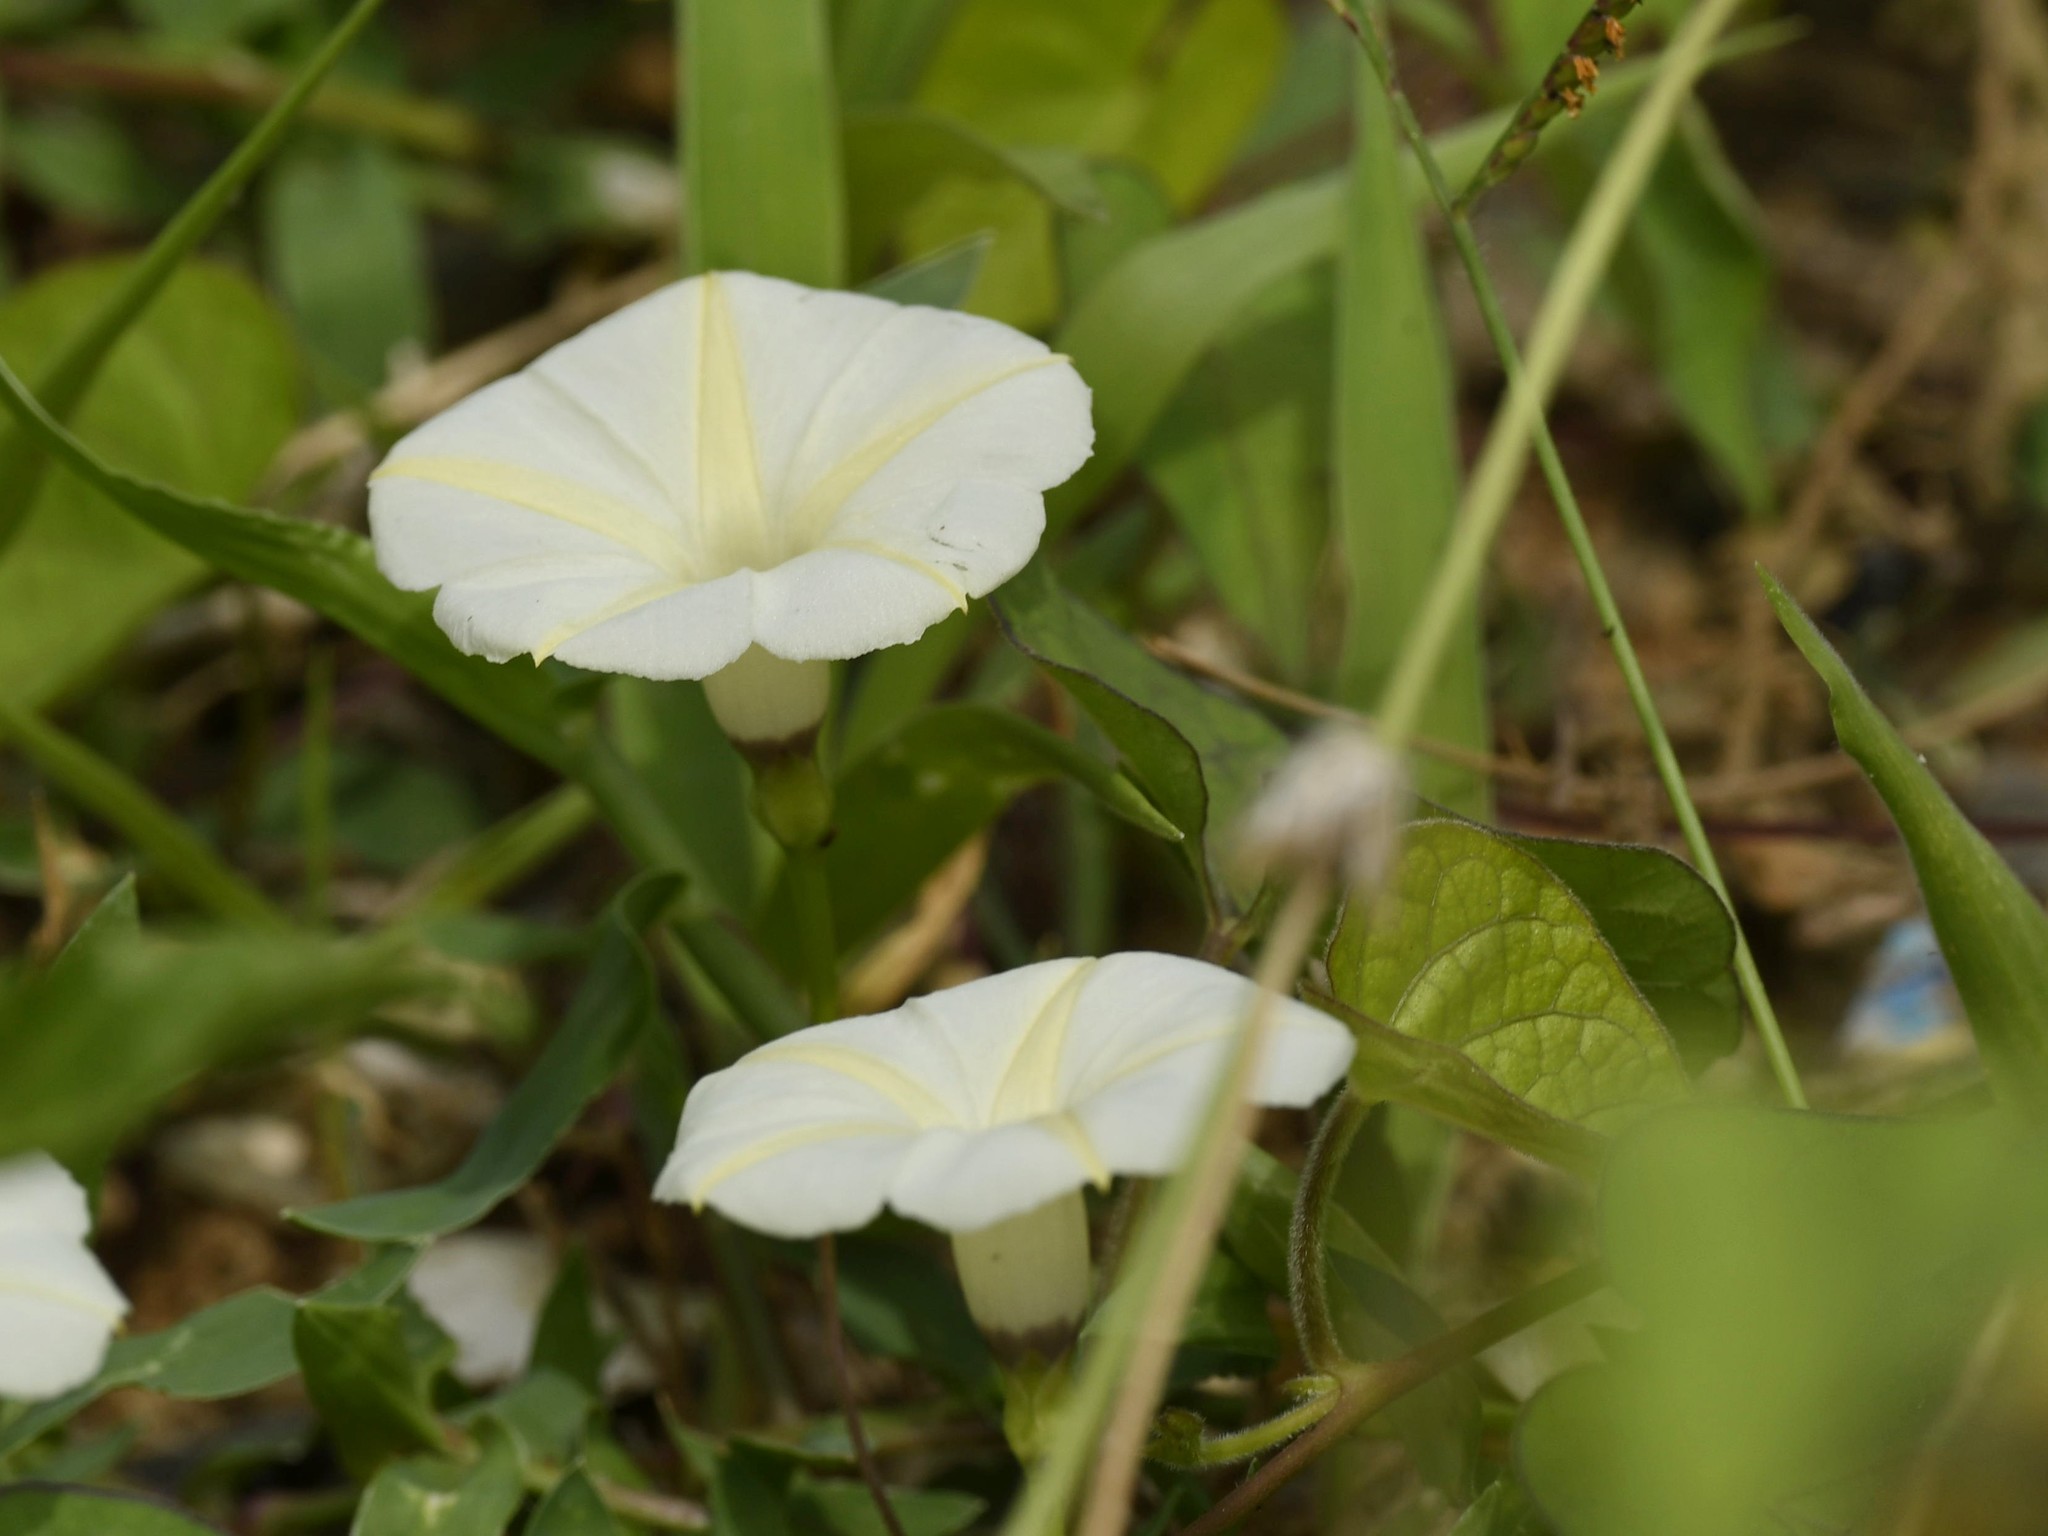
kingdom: Plantae
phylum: Tracheophyta
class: Magnoliopsida
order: Solanales
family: Convolvulaceae
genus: Ipomoea
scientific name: Ipomoea obscura
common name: Obscure morning-glory
